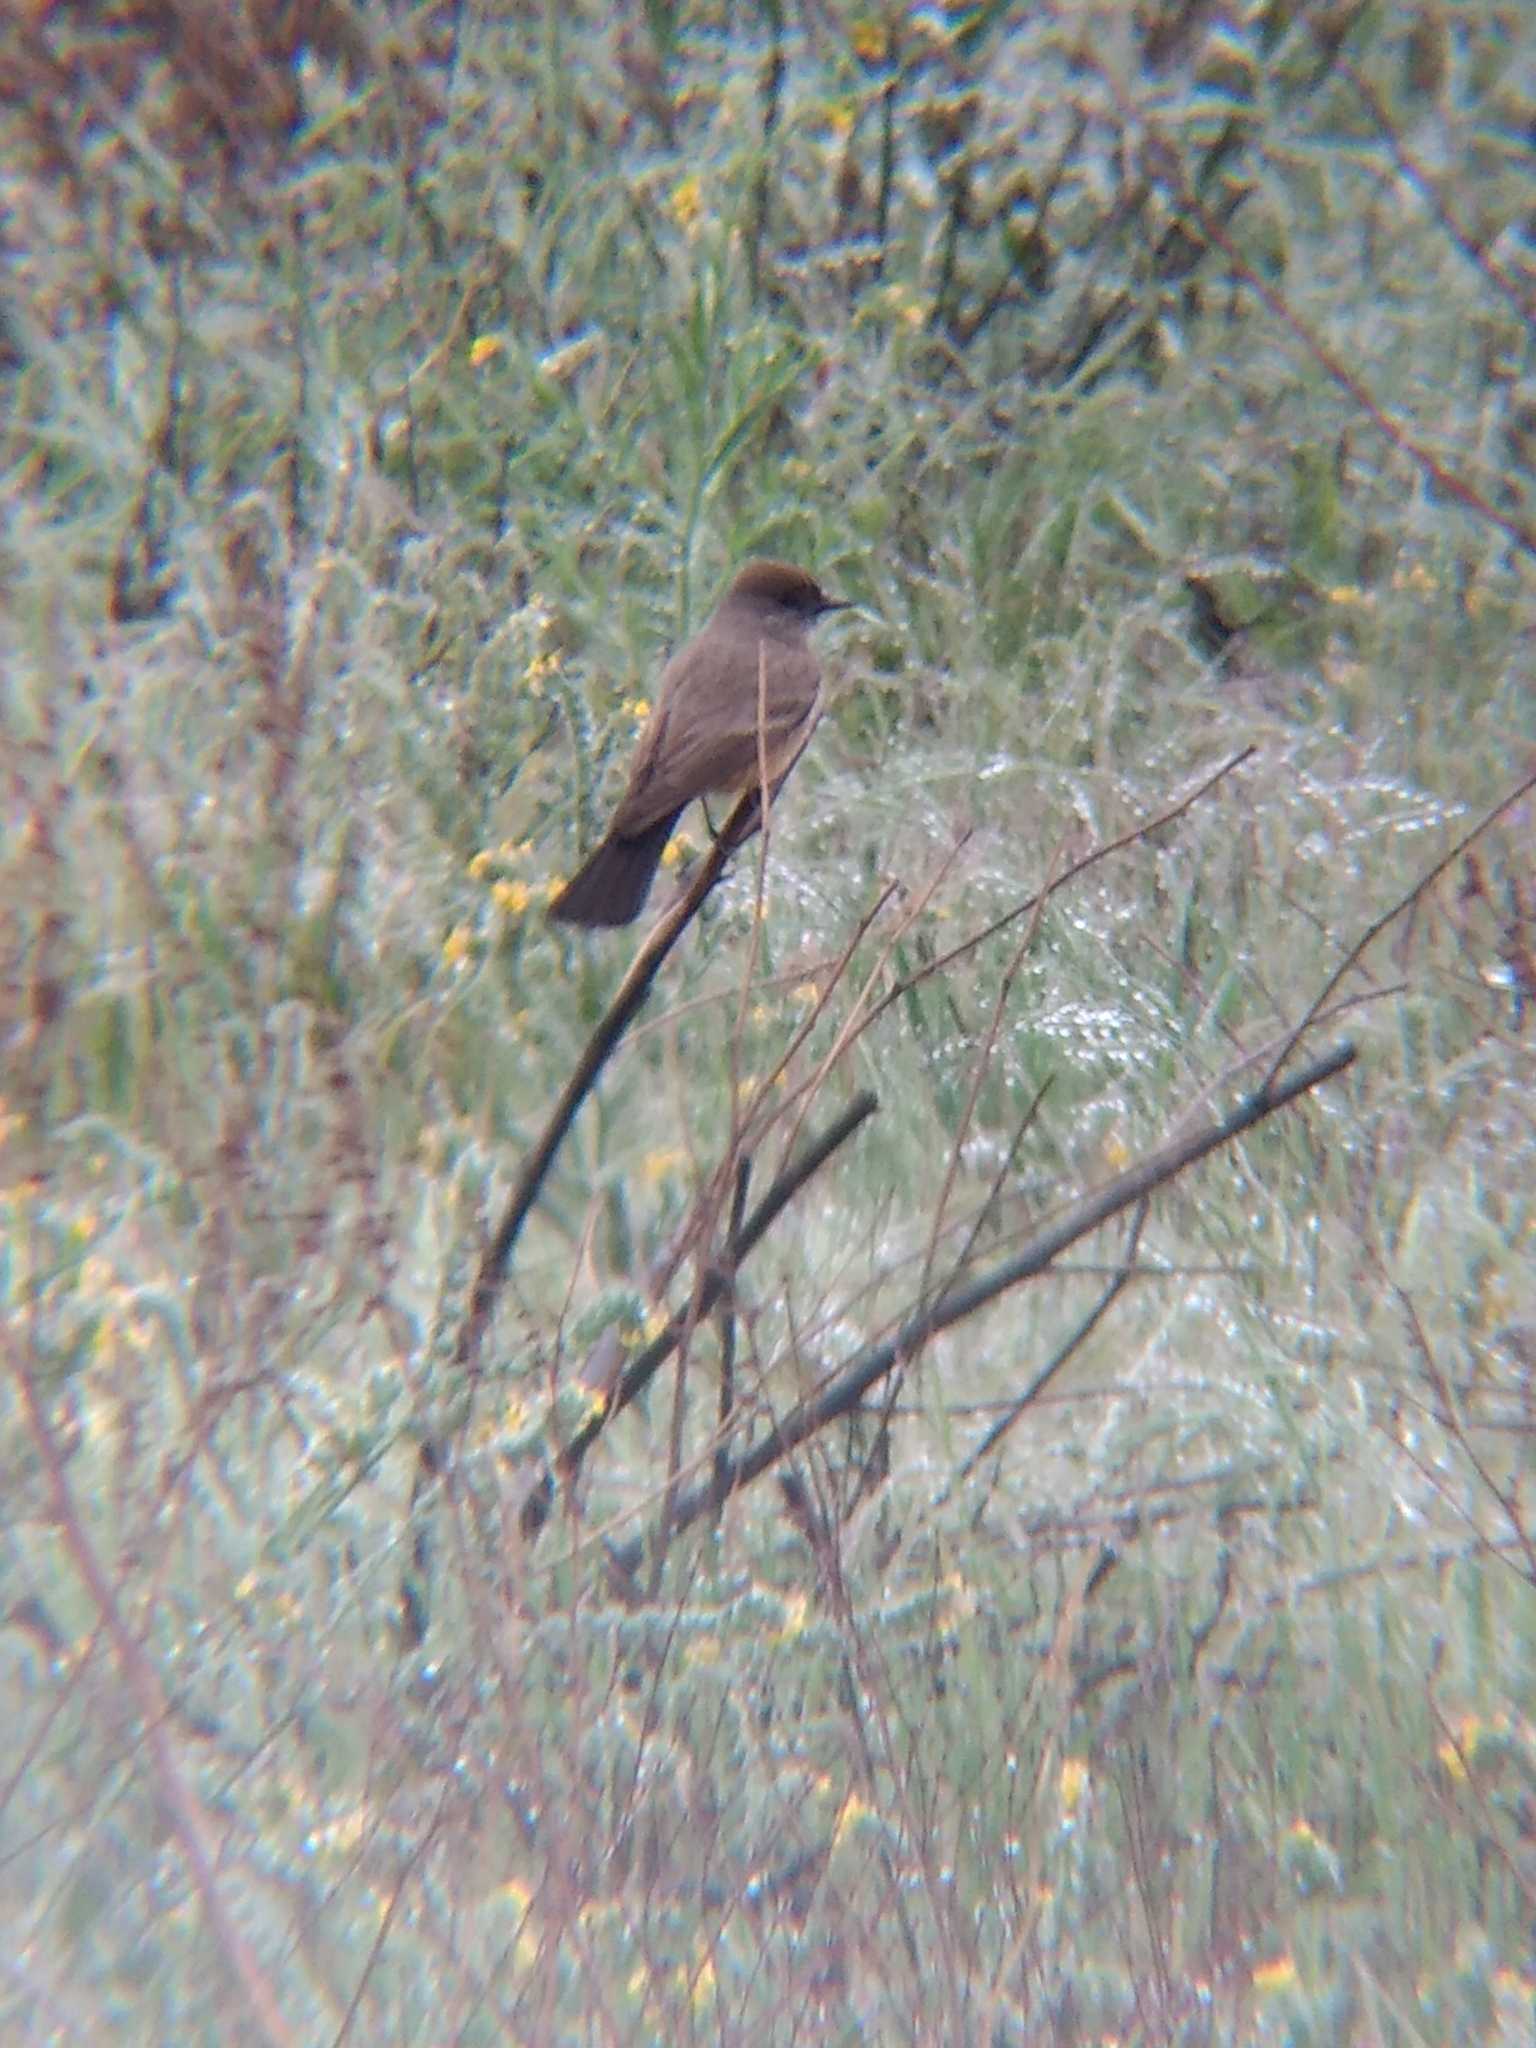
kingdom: Animalia
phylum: Chordata
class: Aves
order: Passeriformes
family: Tyrannidae
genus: Sayornis
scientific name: Sayornis saya
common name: Say's phoebe
